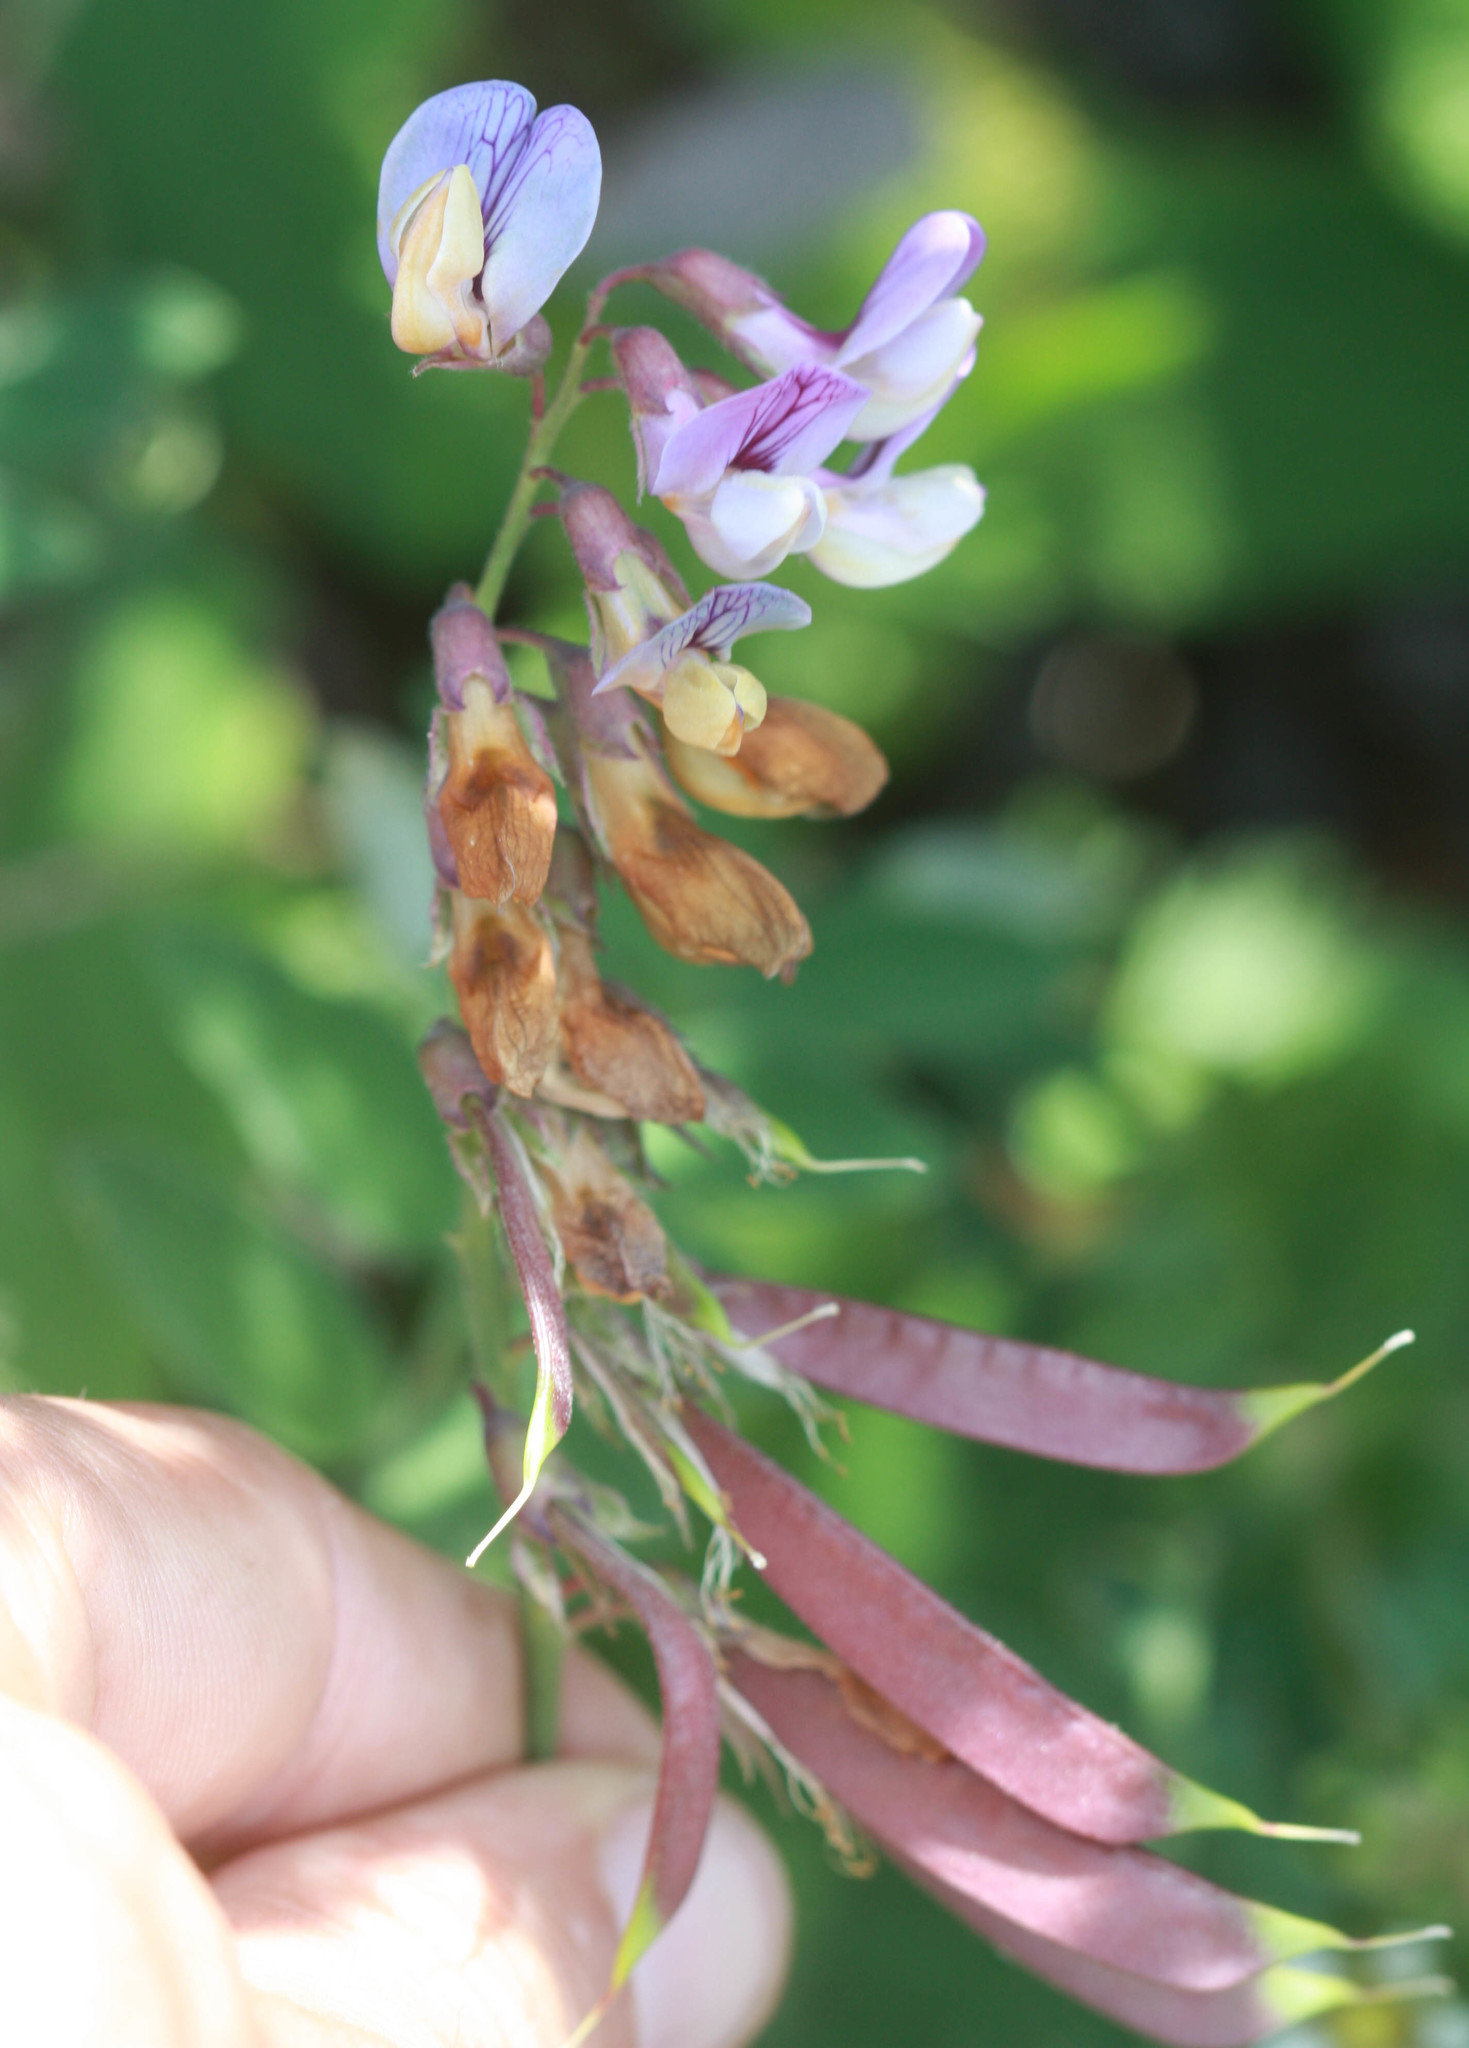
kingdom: Plantae
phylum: Tracheophyta
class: Magnoliopsida
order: Fabales
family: Fabaceae
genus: Lathyrus
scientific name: Lathyrus vestitus
